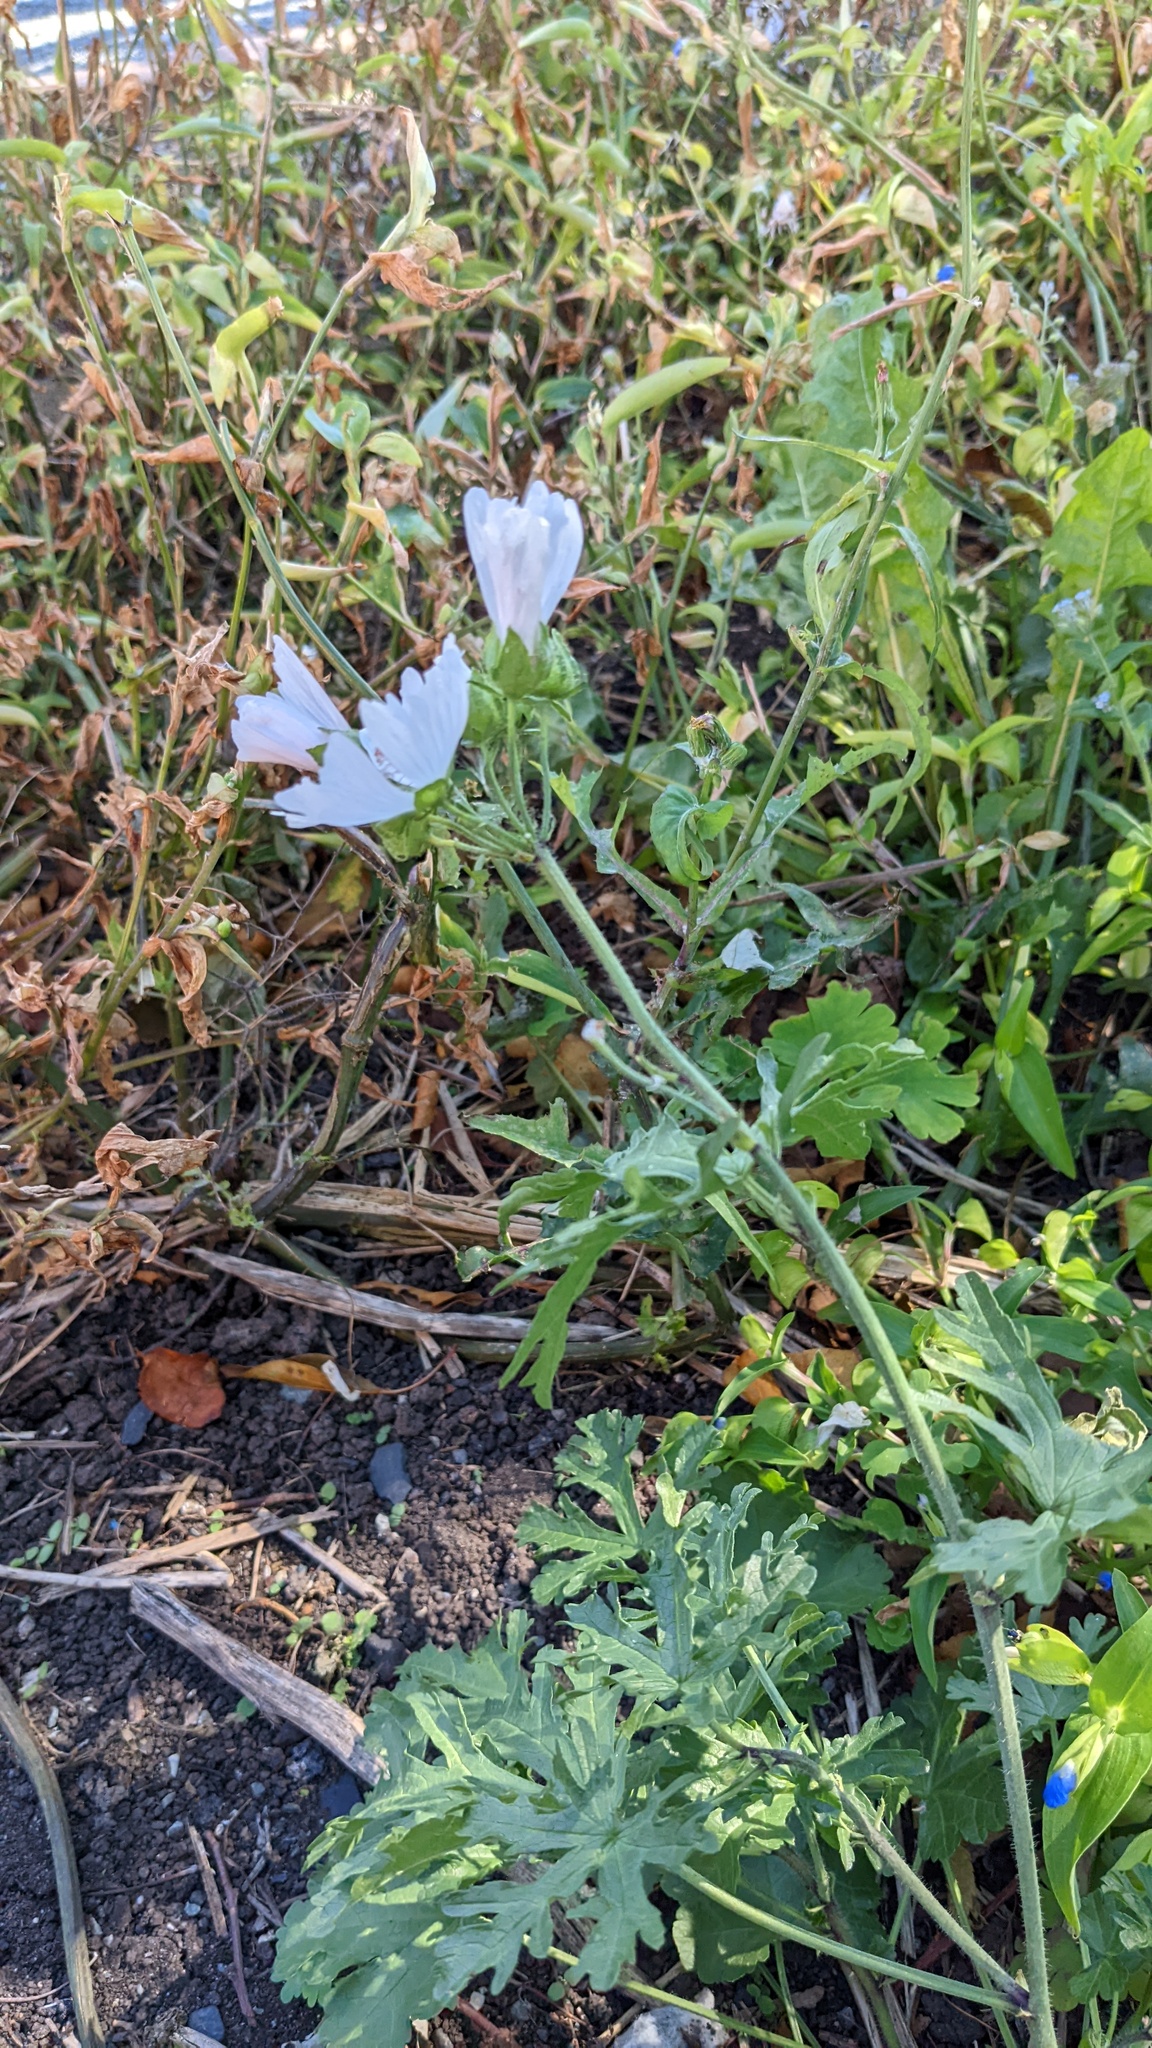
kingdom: Plantae
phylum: Tracheophyta
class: Magnoliopsida
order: Malvales
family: Malvaceae
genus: Malva
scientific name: Malva moschata
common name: Musk mallow
